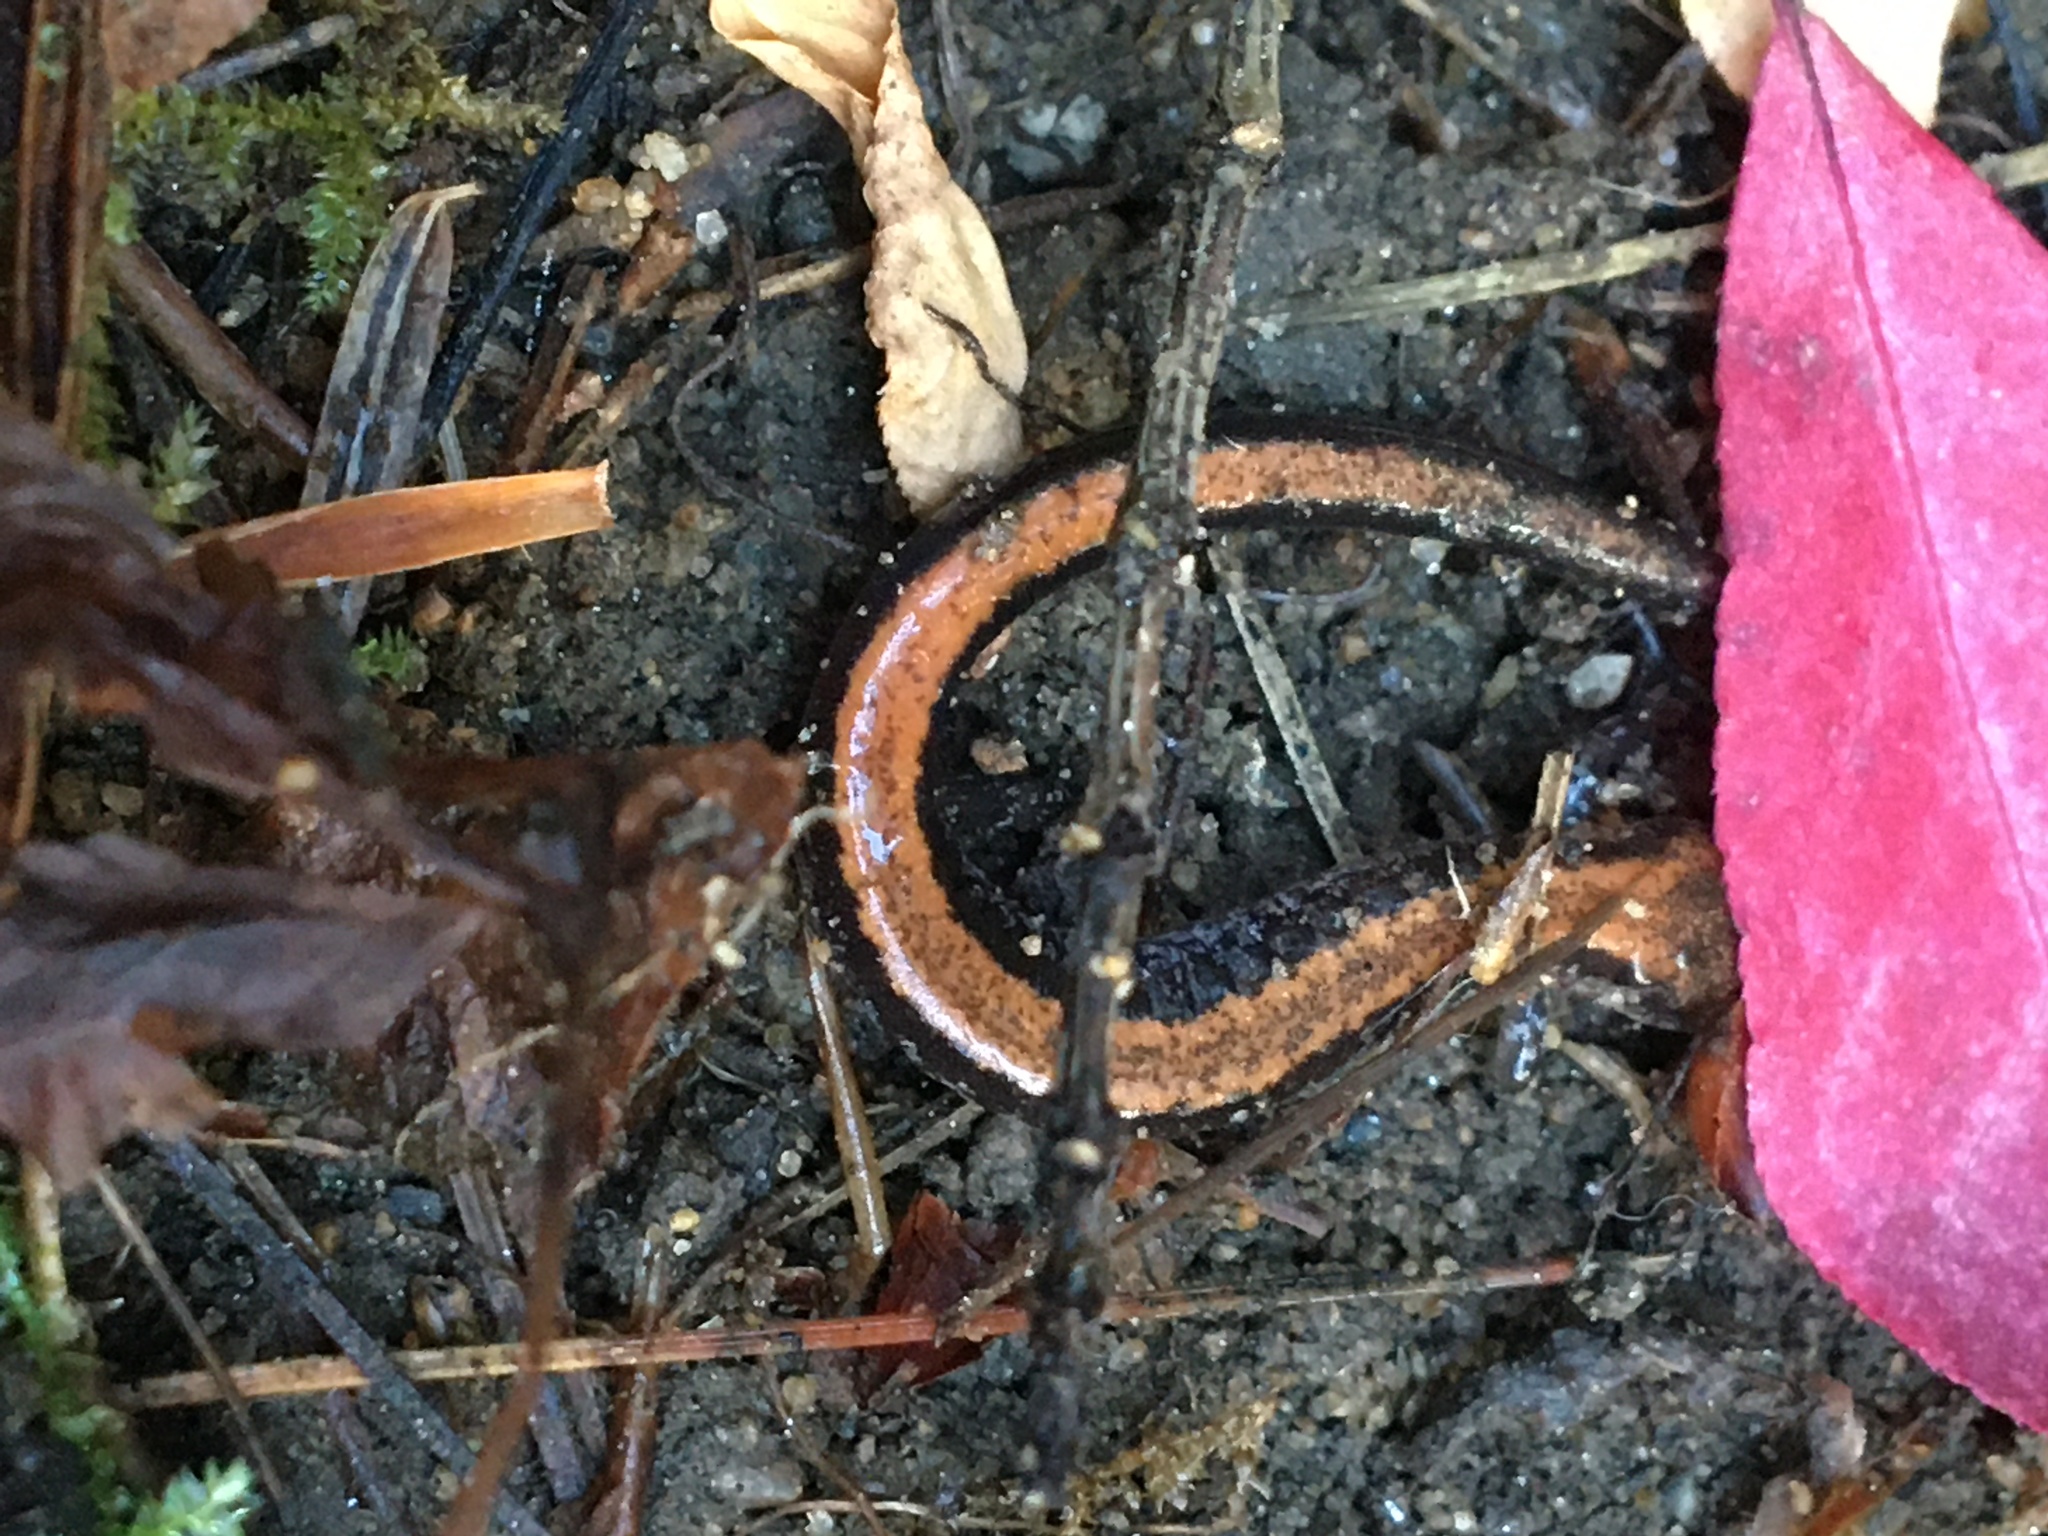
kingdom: Animalia
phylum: Chordata
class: Amphibia
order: Caudata
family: Plethodontidae
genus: Plethodon
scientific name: Plethodon cinereus
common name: Redback salamander
